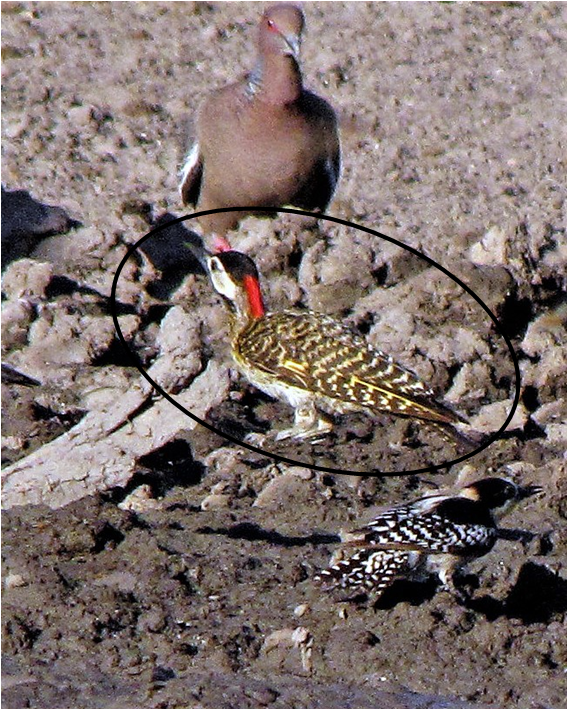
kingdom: Animalia
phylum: Chordata
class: Aves
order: Piciformes
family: Picidae
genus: Colaptes
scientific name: Colaptes melanochloros
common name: Green-barred woodpecker
